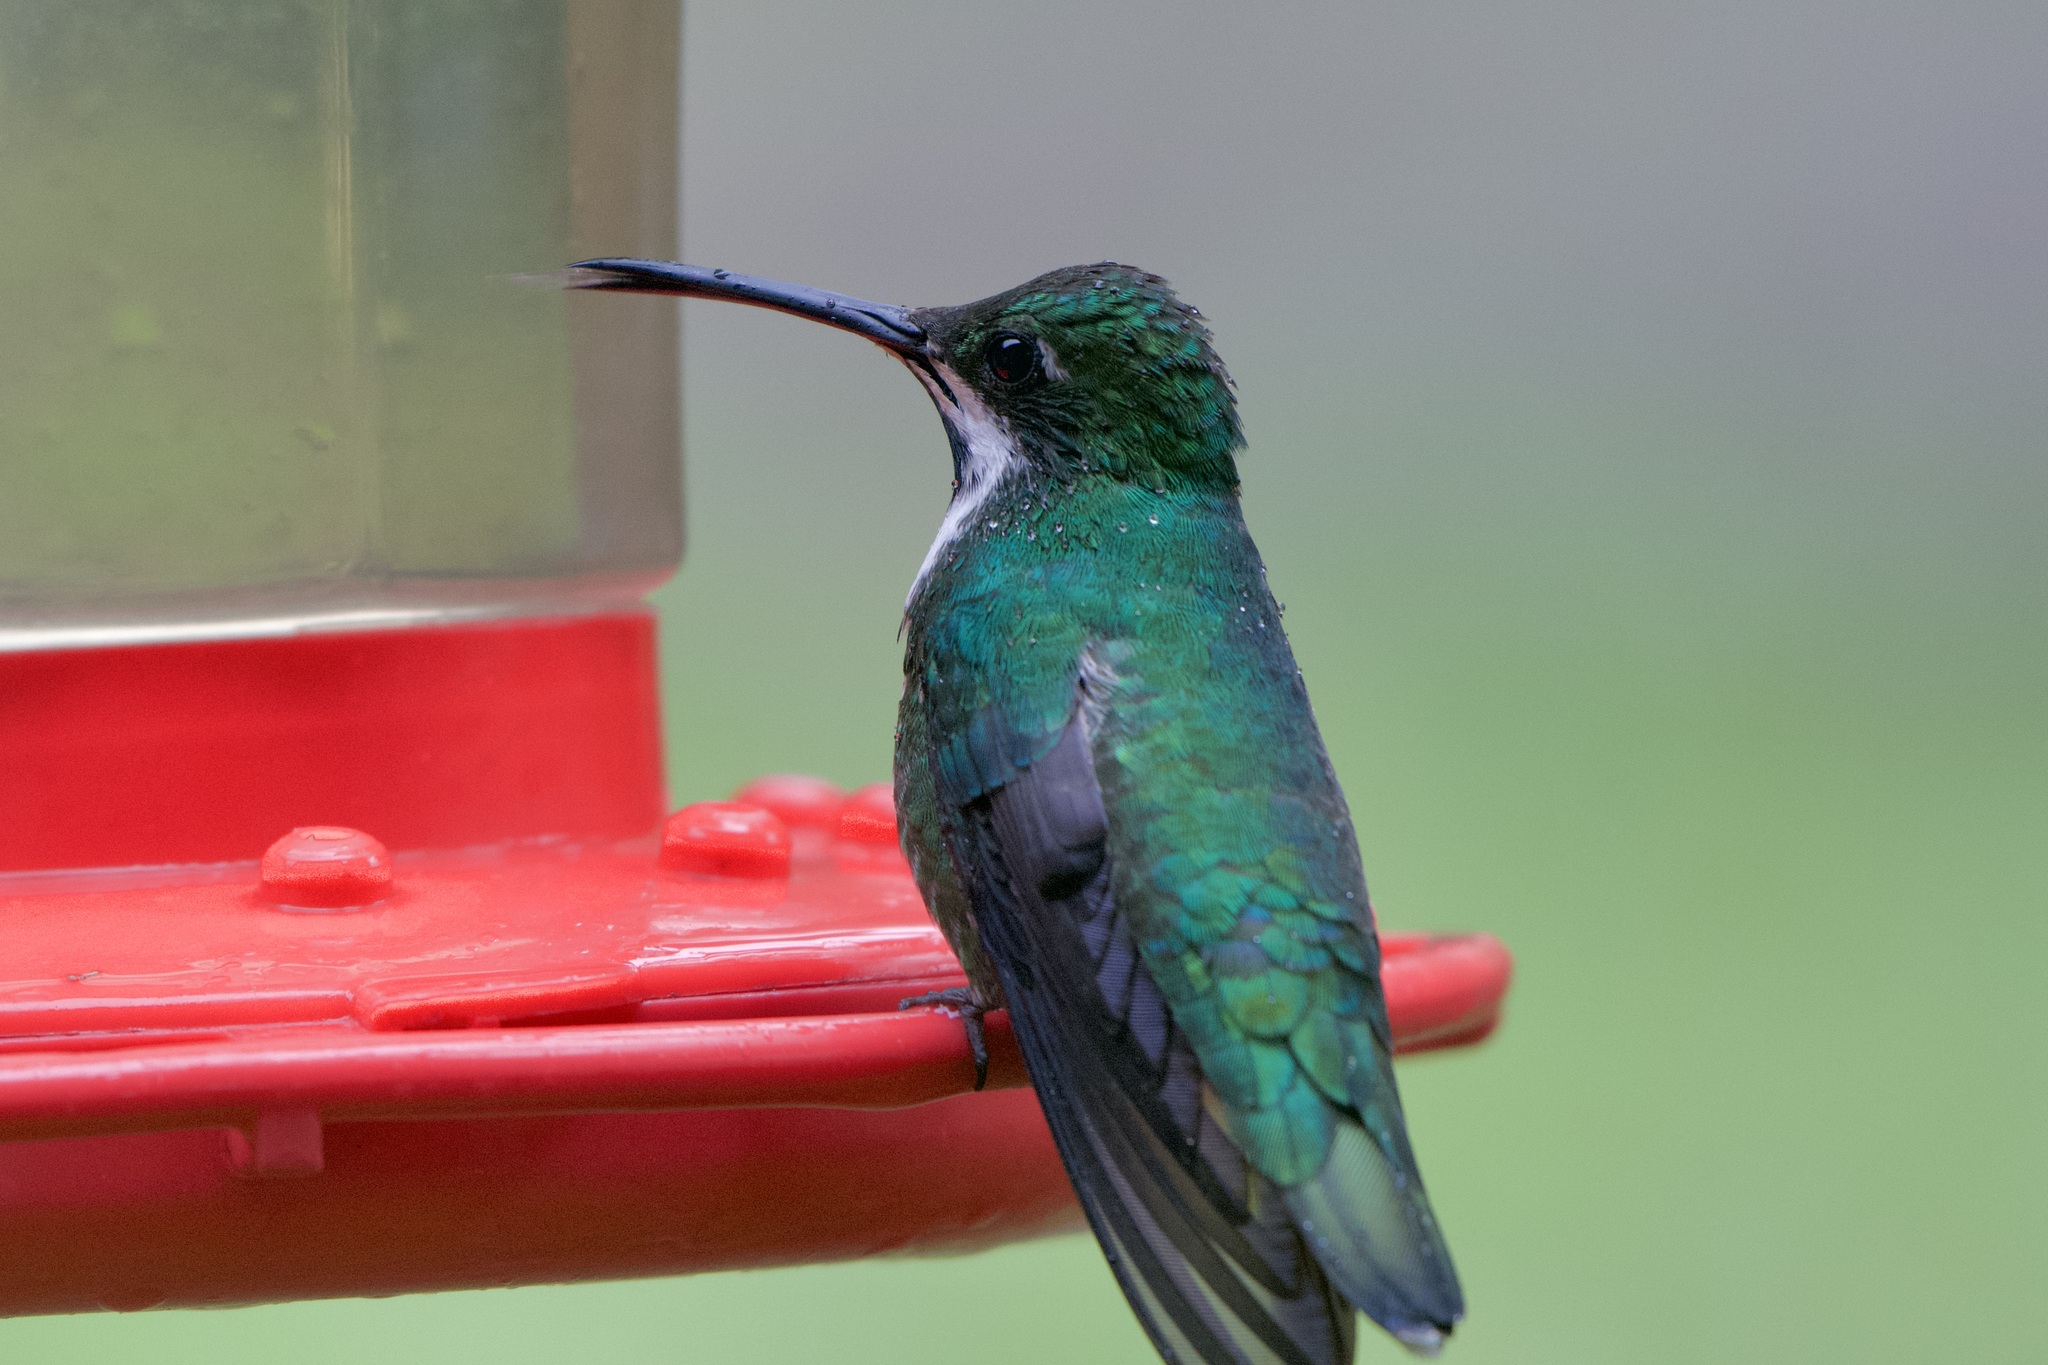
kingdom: Animalia
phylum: Chordata
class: Aves
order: Apodiformes
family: Trochilidae
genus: Anthracothorax
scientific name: Anthracothorax nigricollis
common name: Black-throated mango
